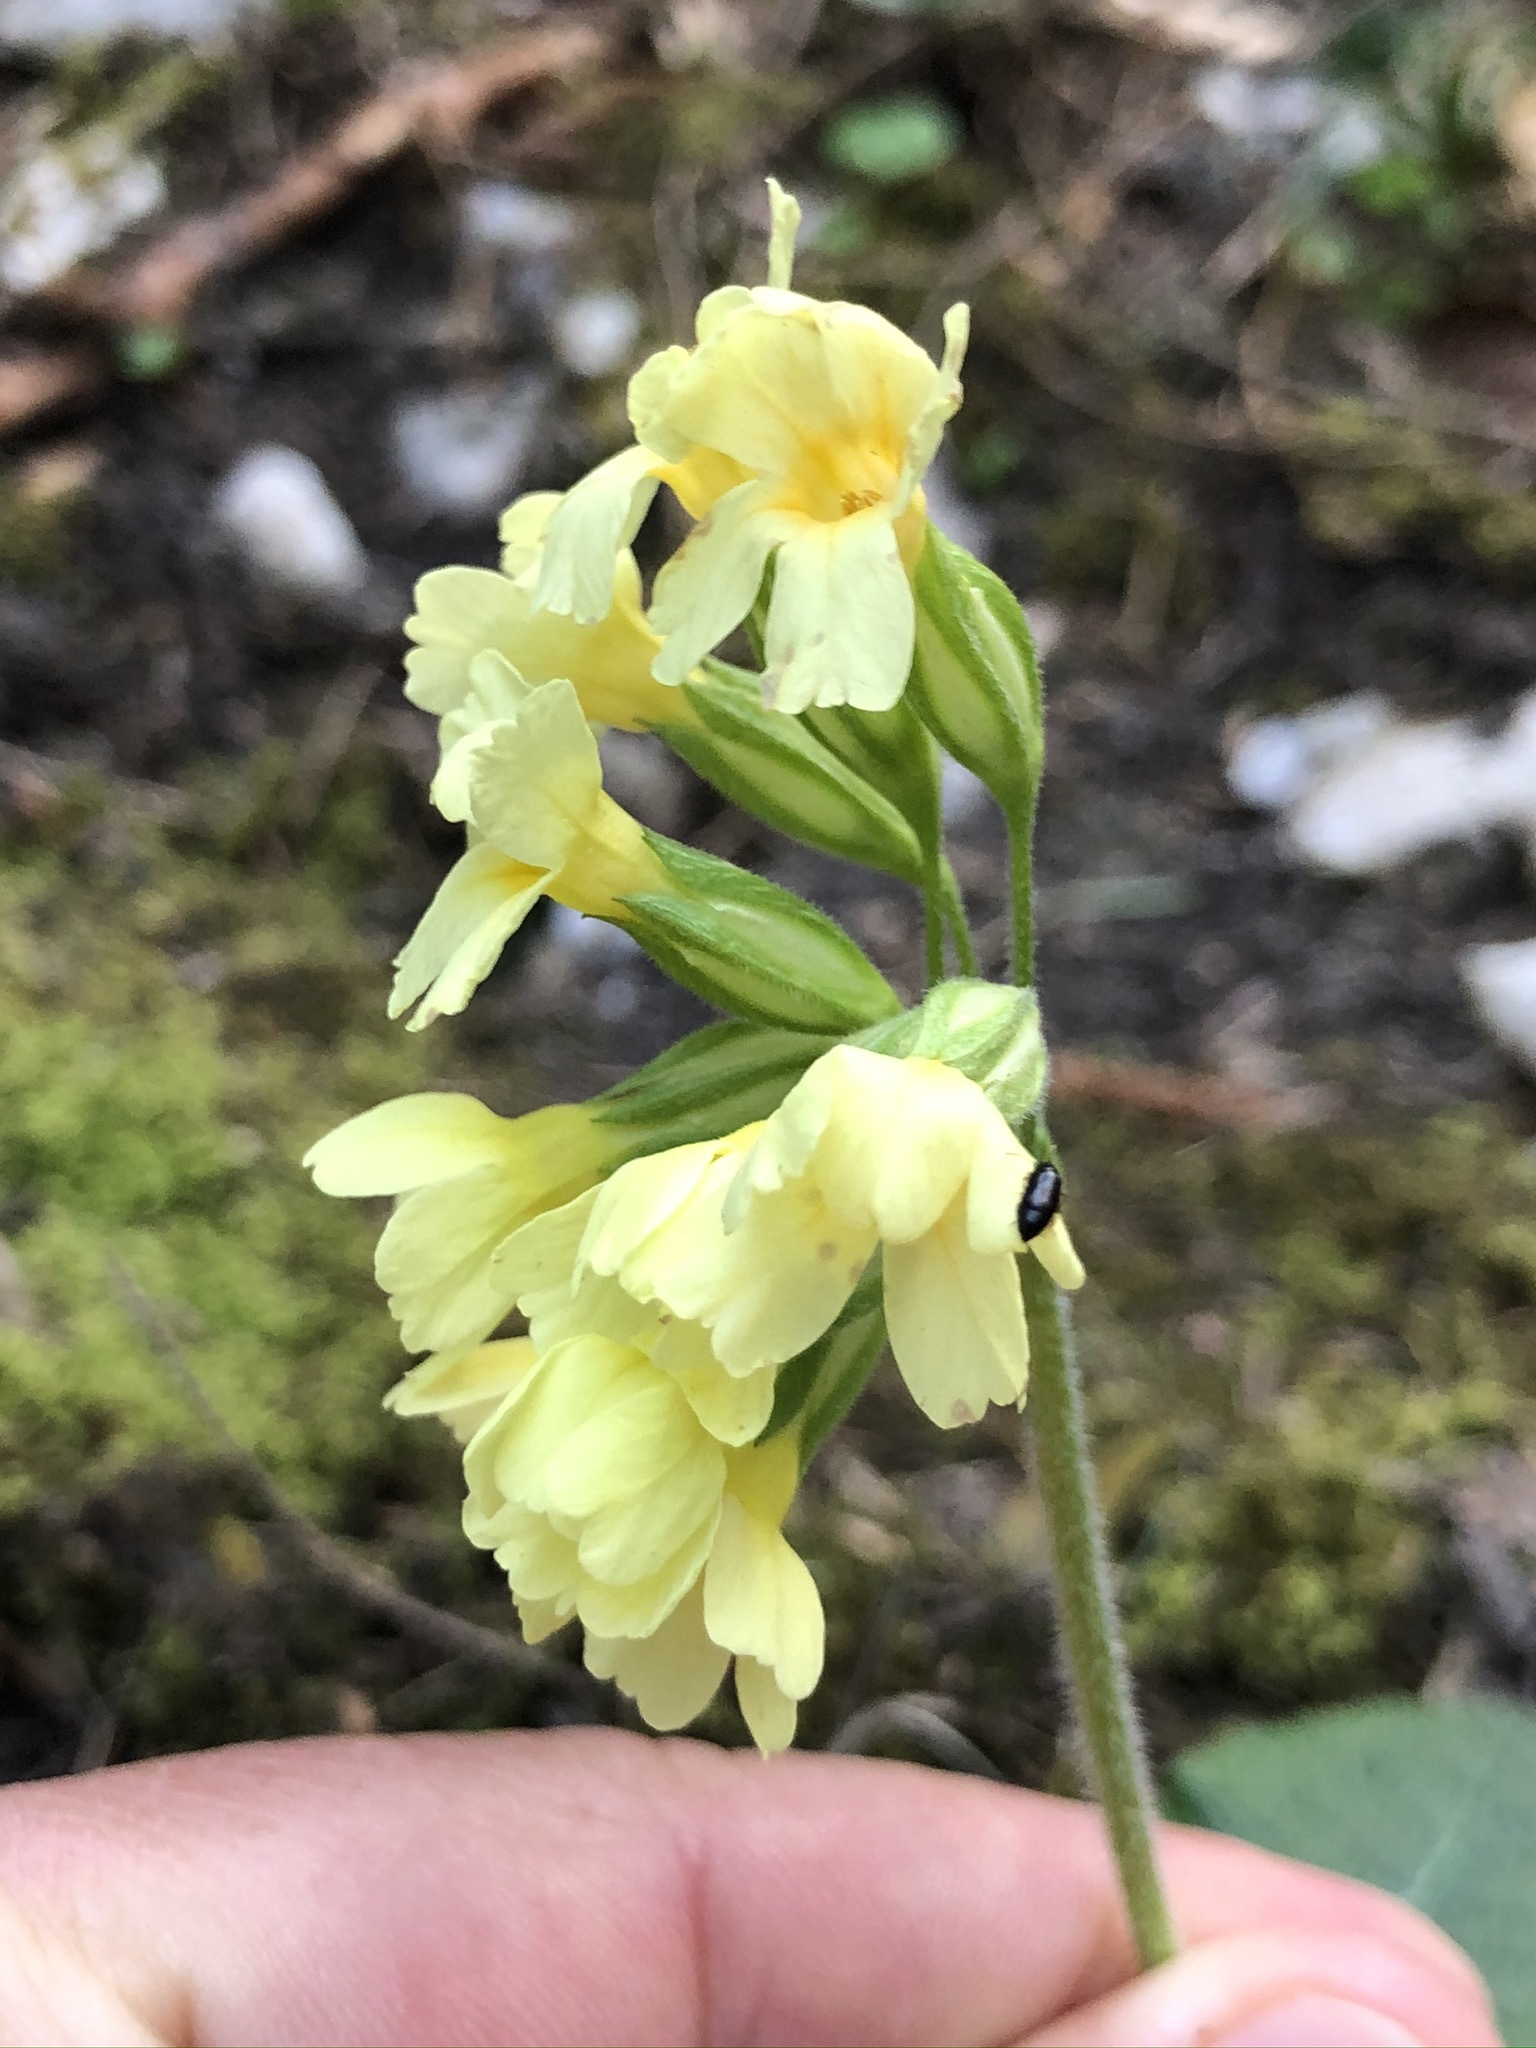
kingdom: Plantae
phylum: Tracheophyta
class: Magnoliopsida
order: Ericales
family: Primulaceae
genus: Primula
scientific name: Primula elatior
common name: Oxlip
